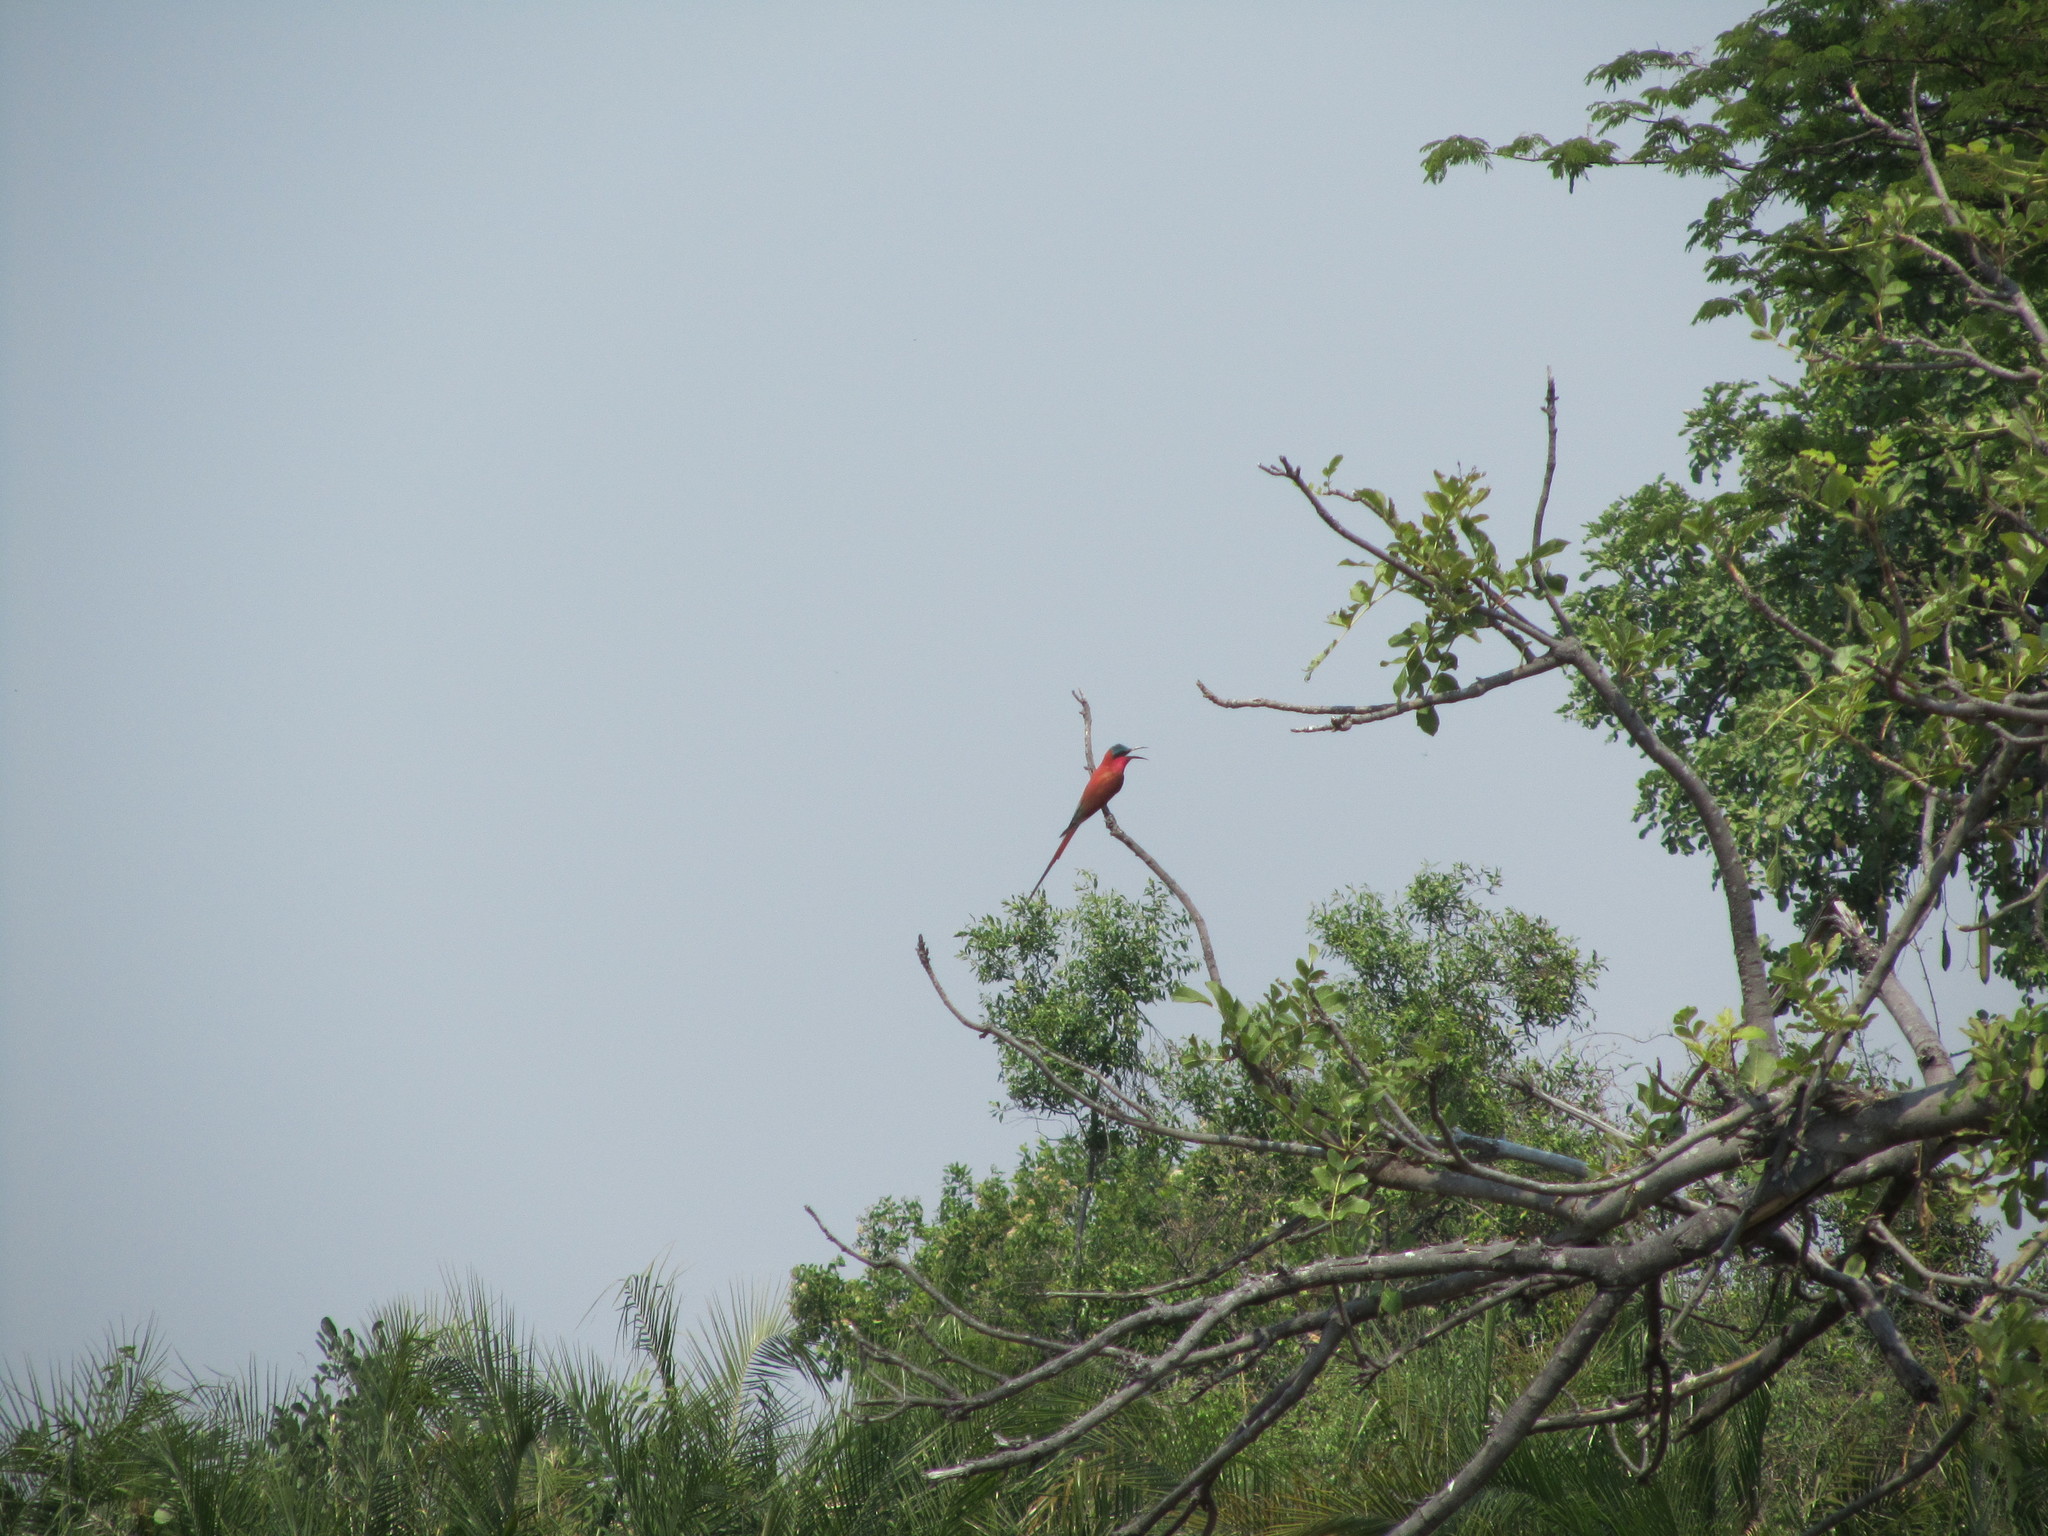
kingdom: Animalia
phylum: Chordata
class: Aves
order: Coraciiformes
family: Meropidae
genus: Merops
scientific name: Merops nubicoides
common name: Southern carmine bee-eater
